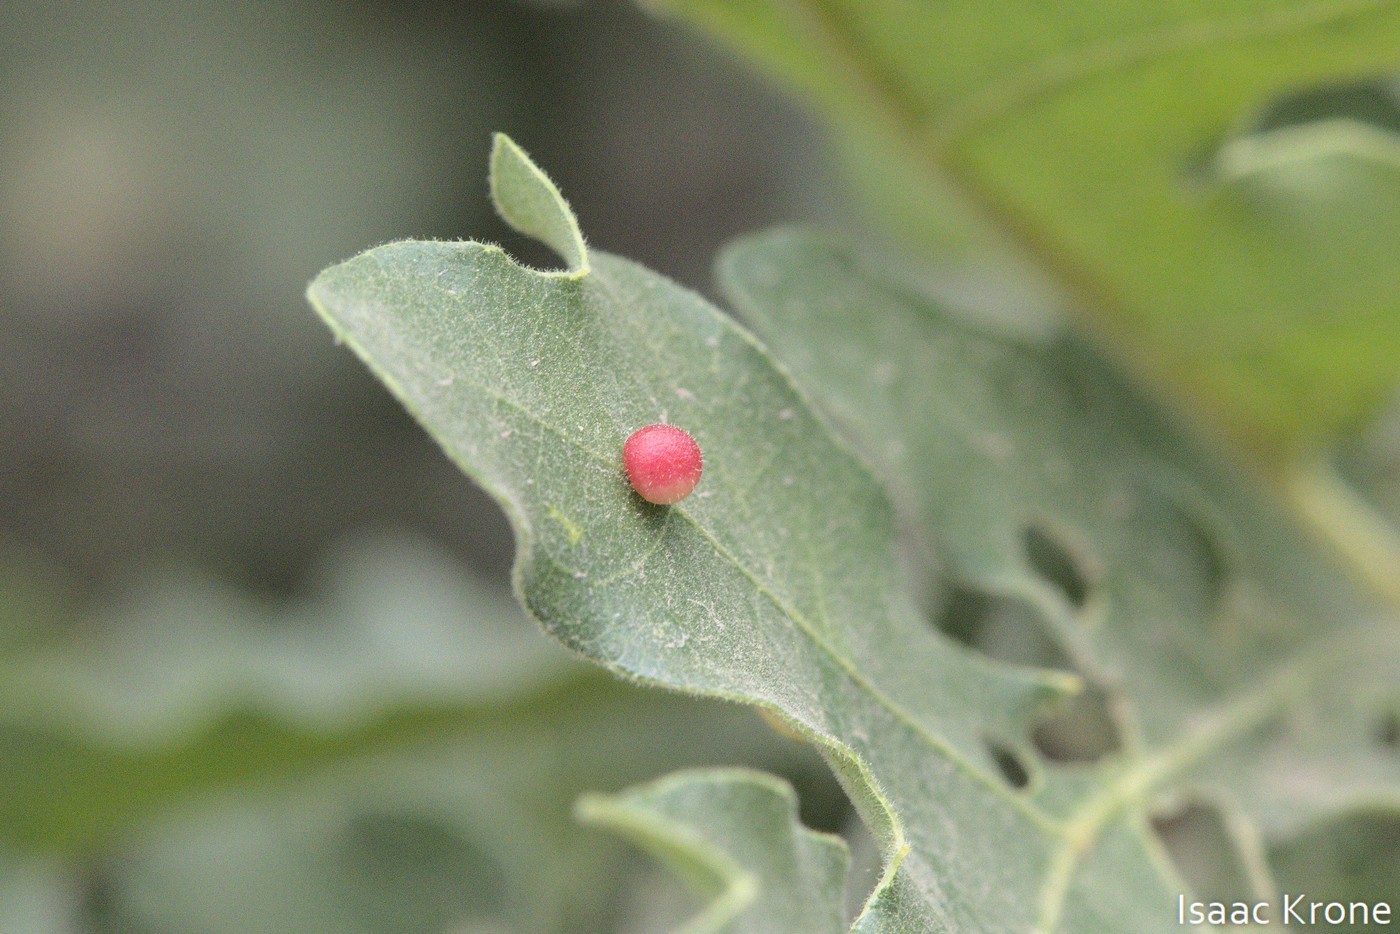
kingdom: Animalia
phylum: Arthropoda
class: Insecta
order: Hymenoptera
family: Cynipidae
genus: Acraspis
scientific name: Acraspis quercushirta
